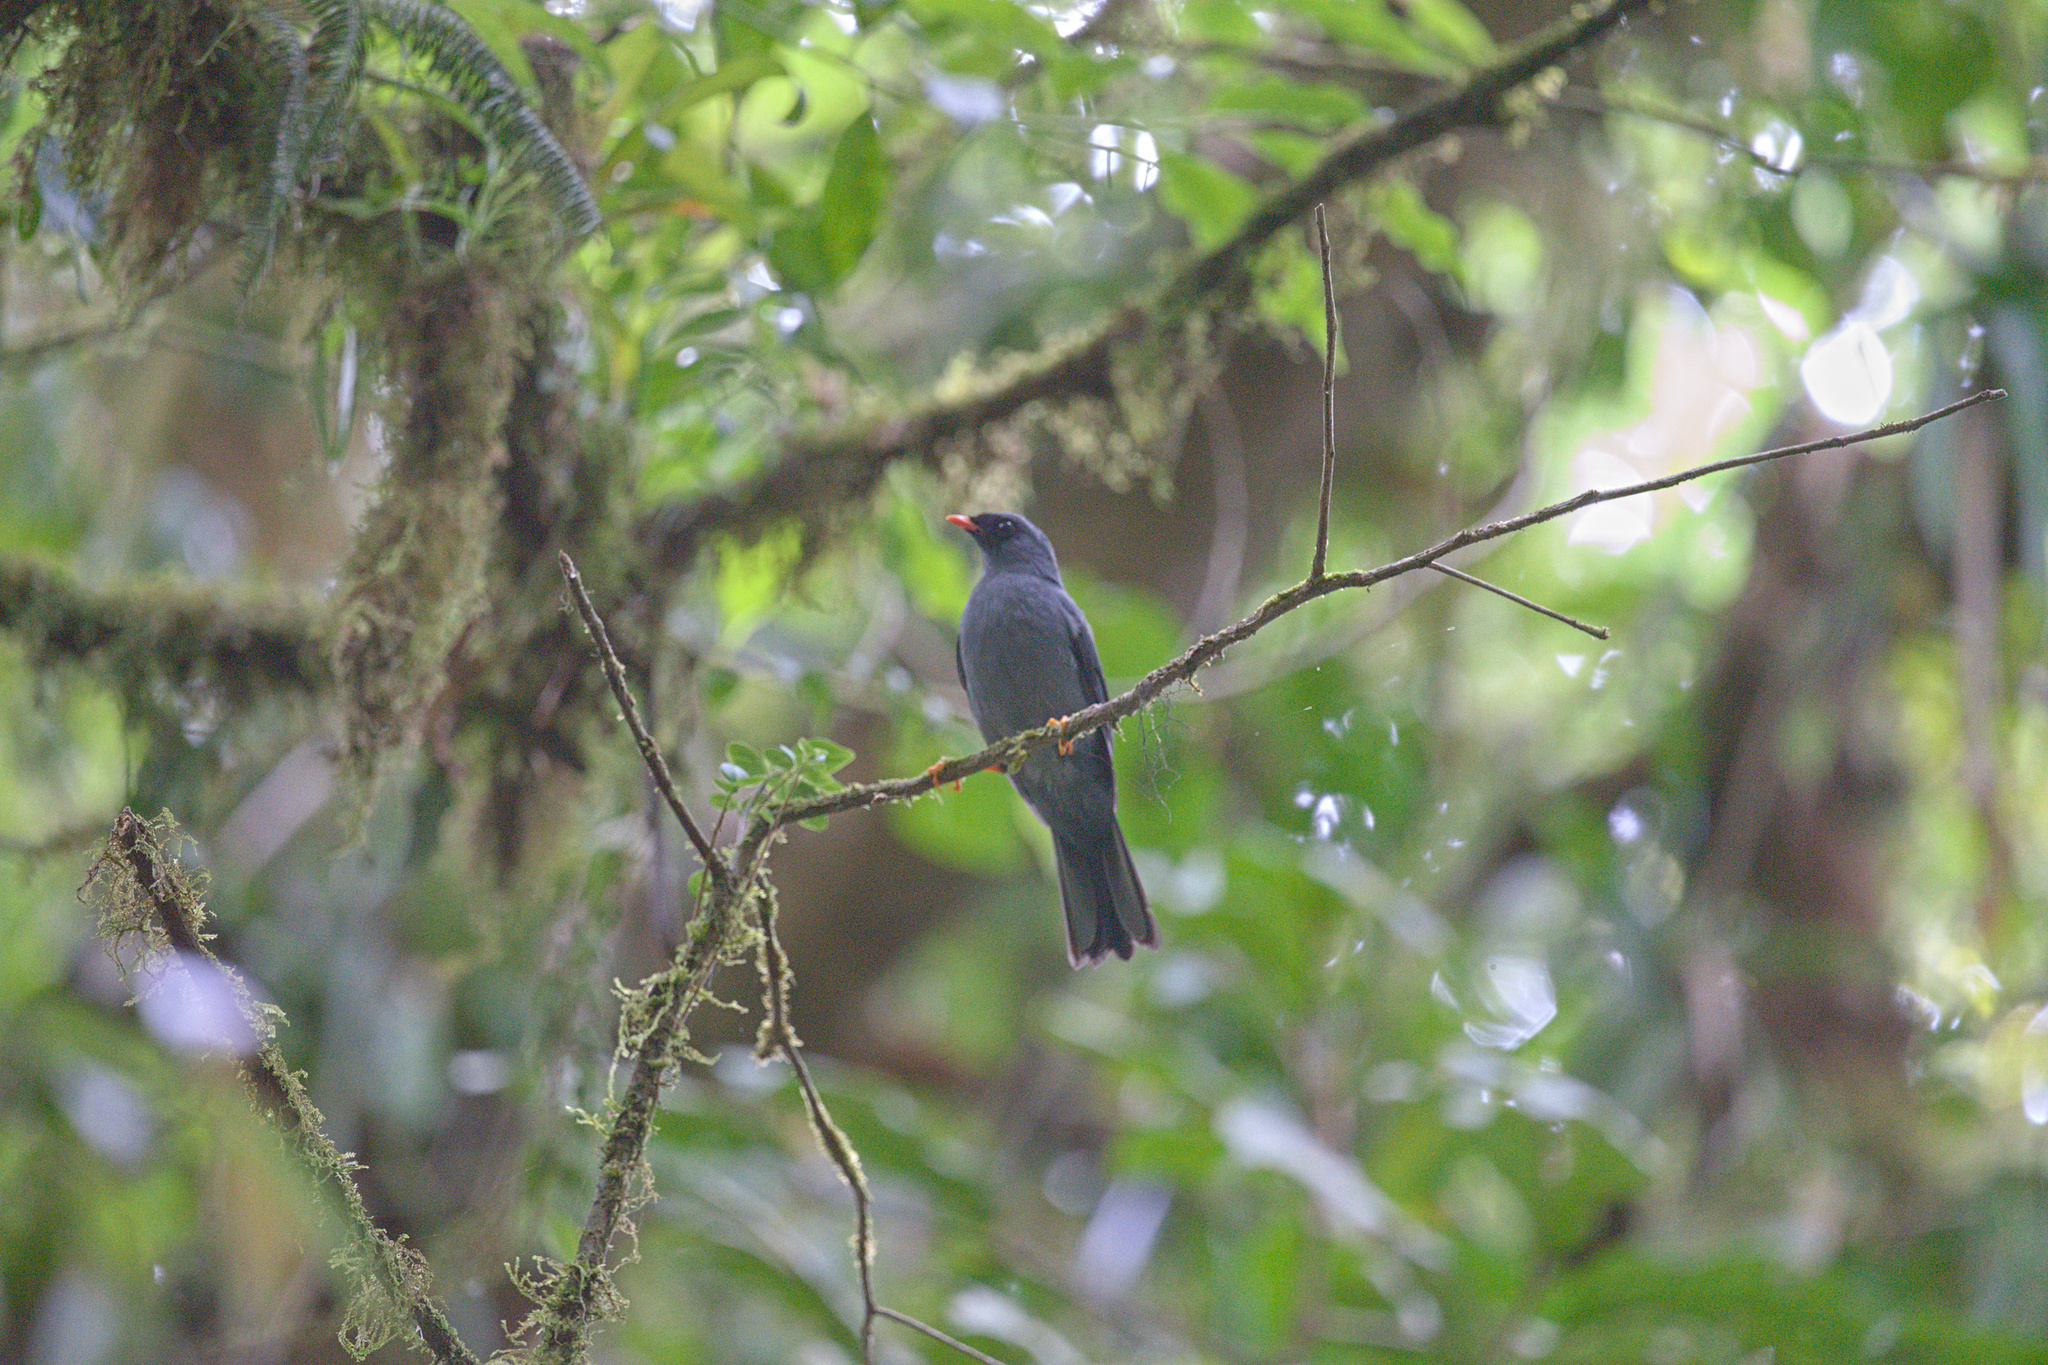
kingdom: Animalia
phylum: Chordata
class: Aves
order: Passeriformes
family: Turdidae
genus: Myadestes
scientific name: Myadestes melanops
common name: Black-faced solitaire
